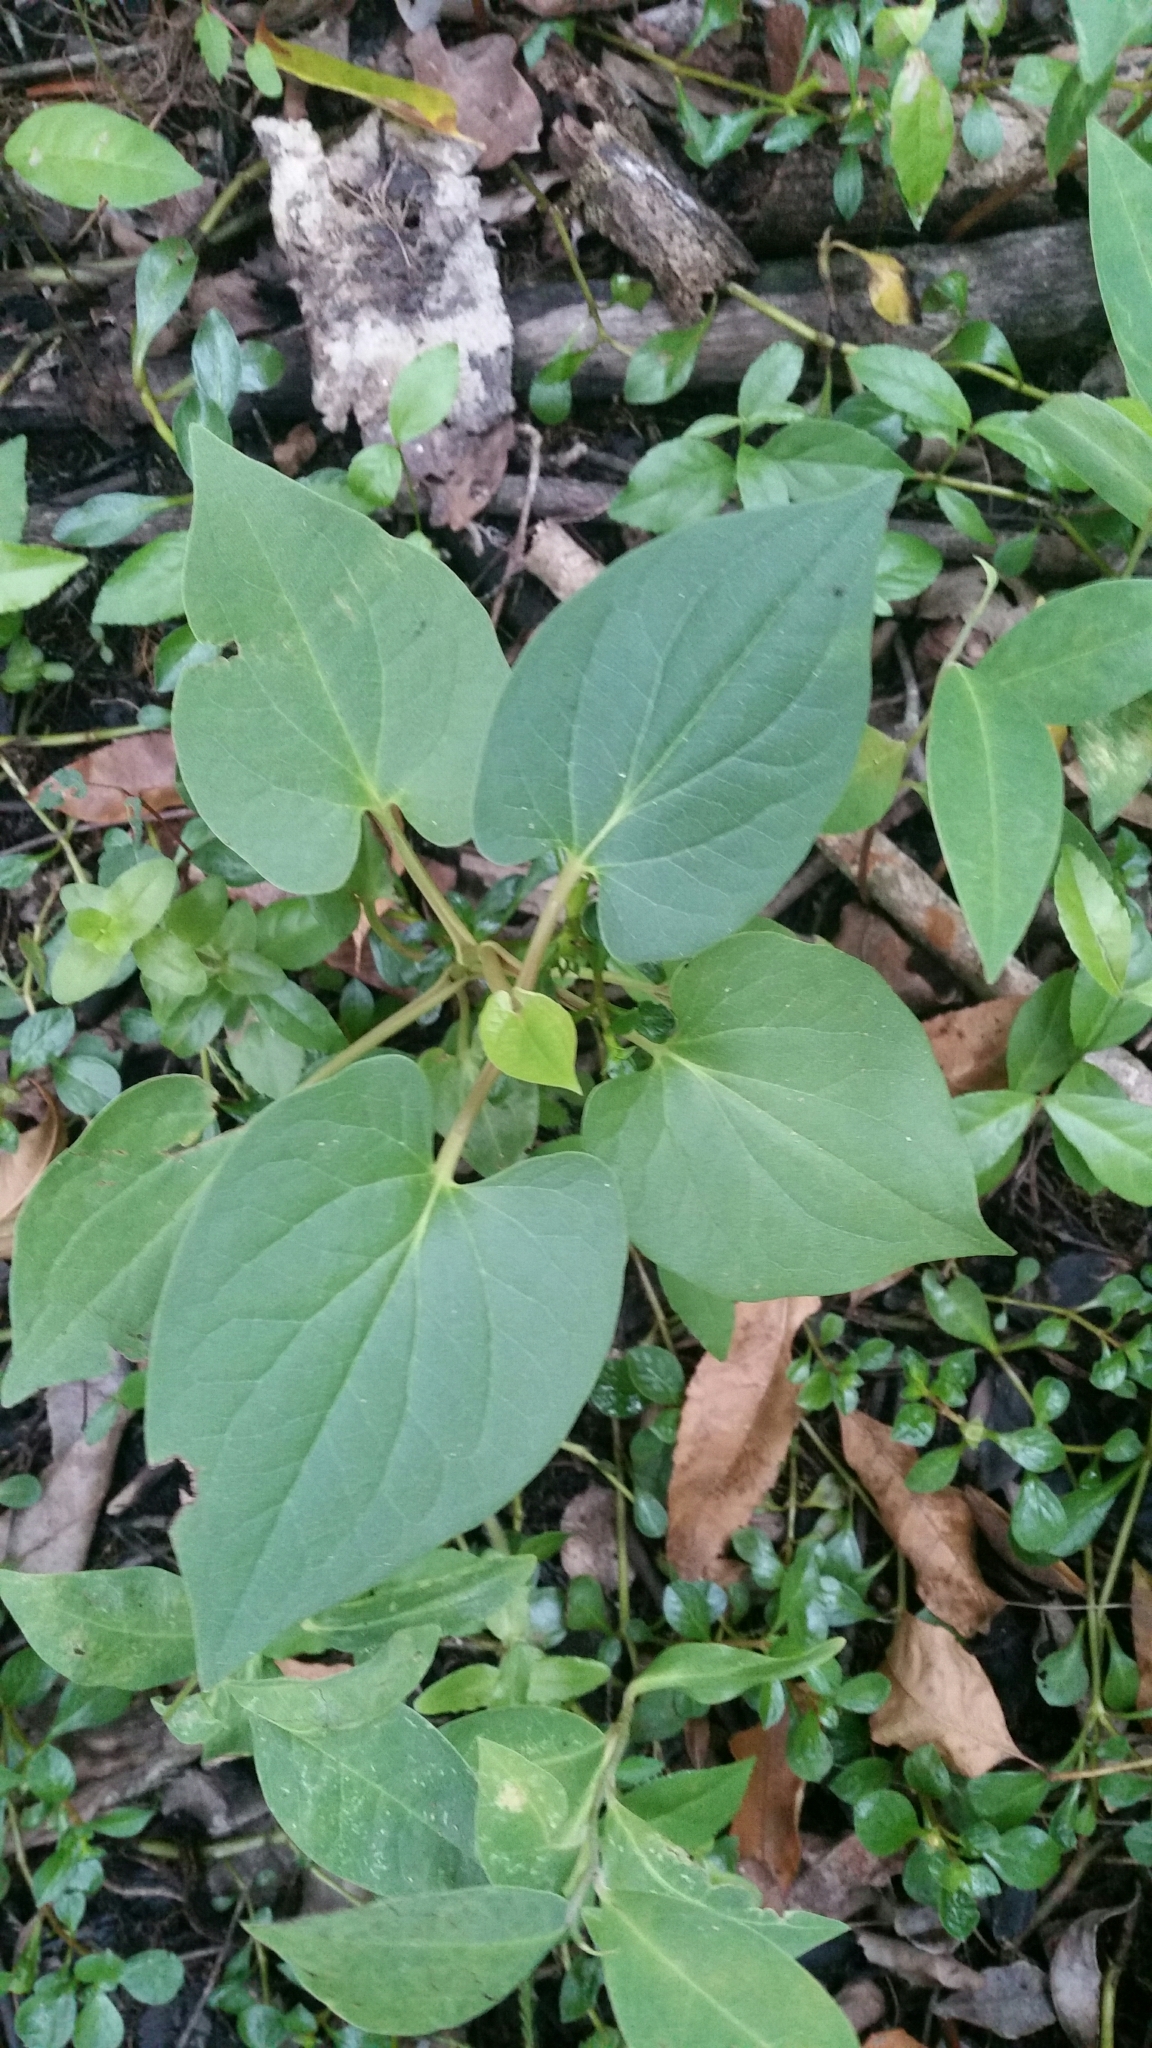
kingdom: Plantae
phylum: Tracheophyta
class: Magnoliopsida
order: Piperales
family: Saururaceae
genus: Saururus
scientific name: Saururus cernuus
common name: Lizard's-tail
